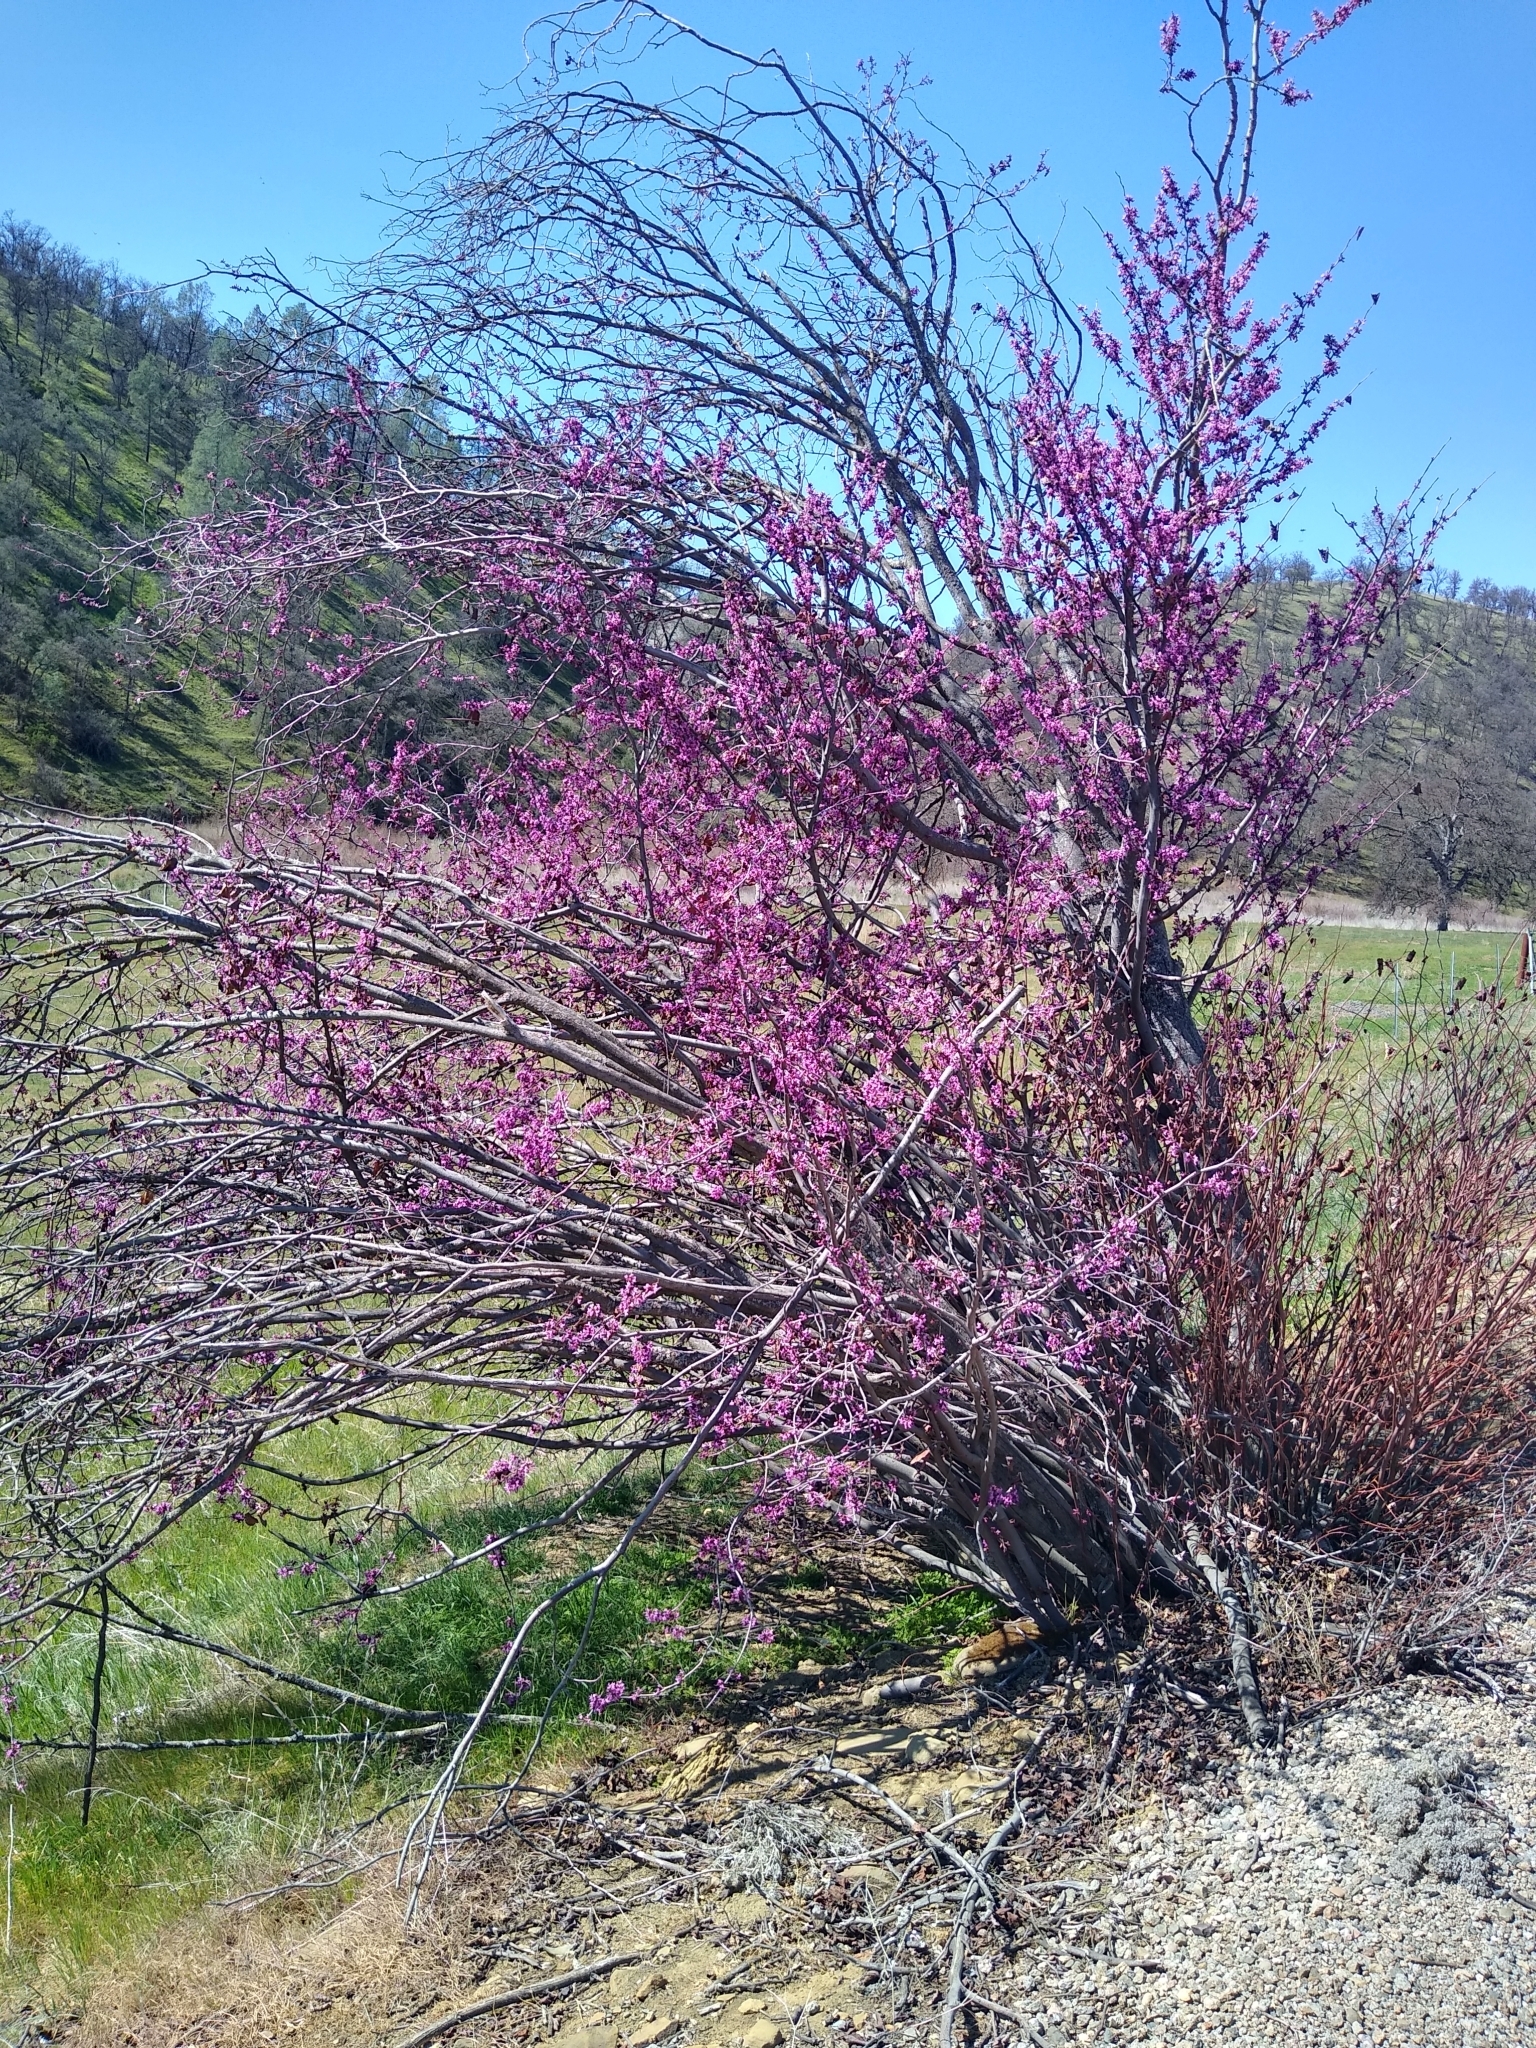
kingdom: Plantae
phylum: Tracheophyta
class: Magnoliopsida
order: Fabales
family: Fabaceae
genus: Cercis
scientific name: Cercis occidentalis
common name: California redbud
